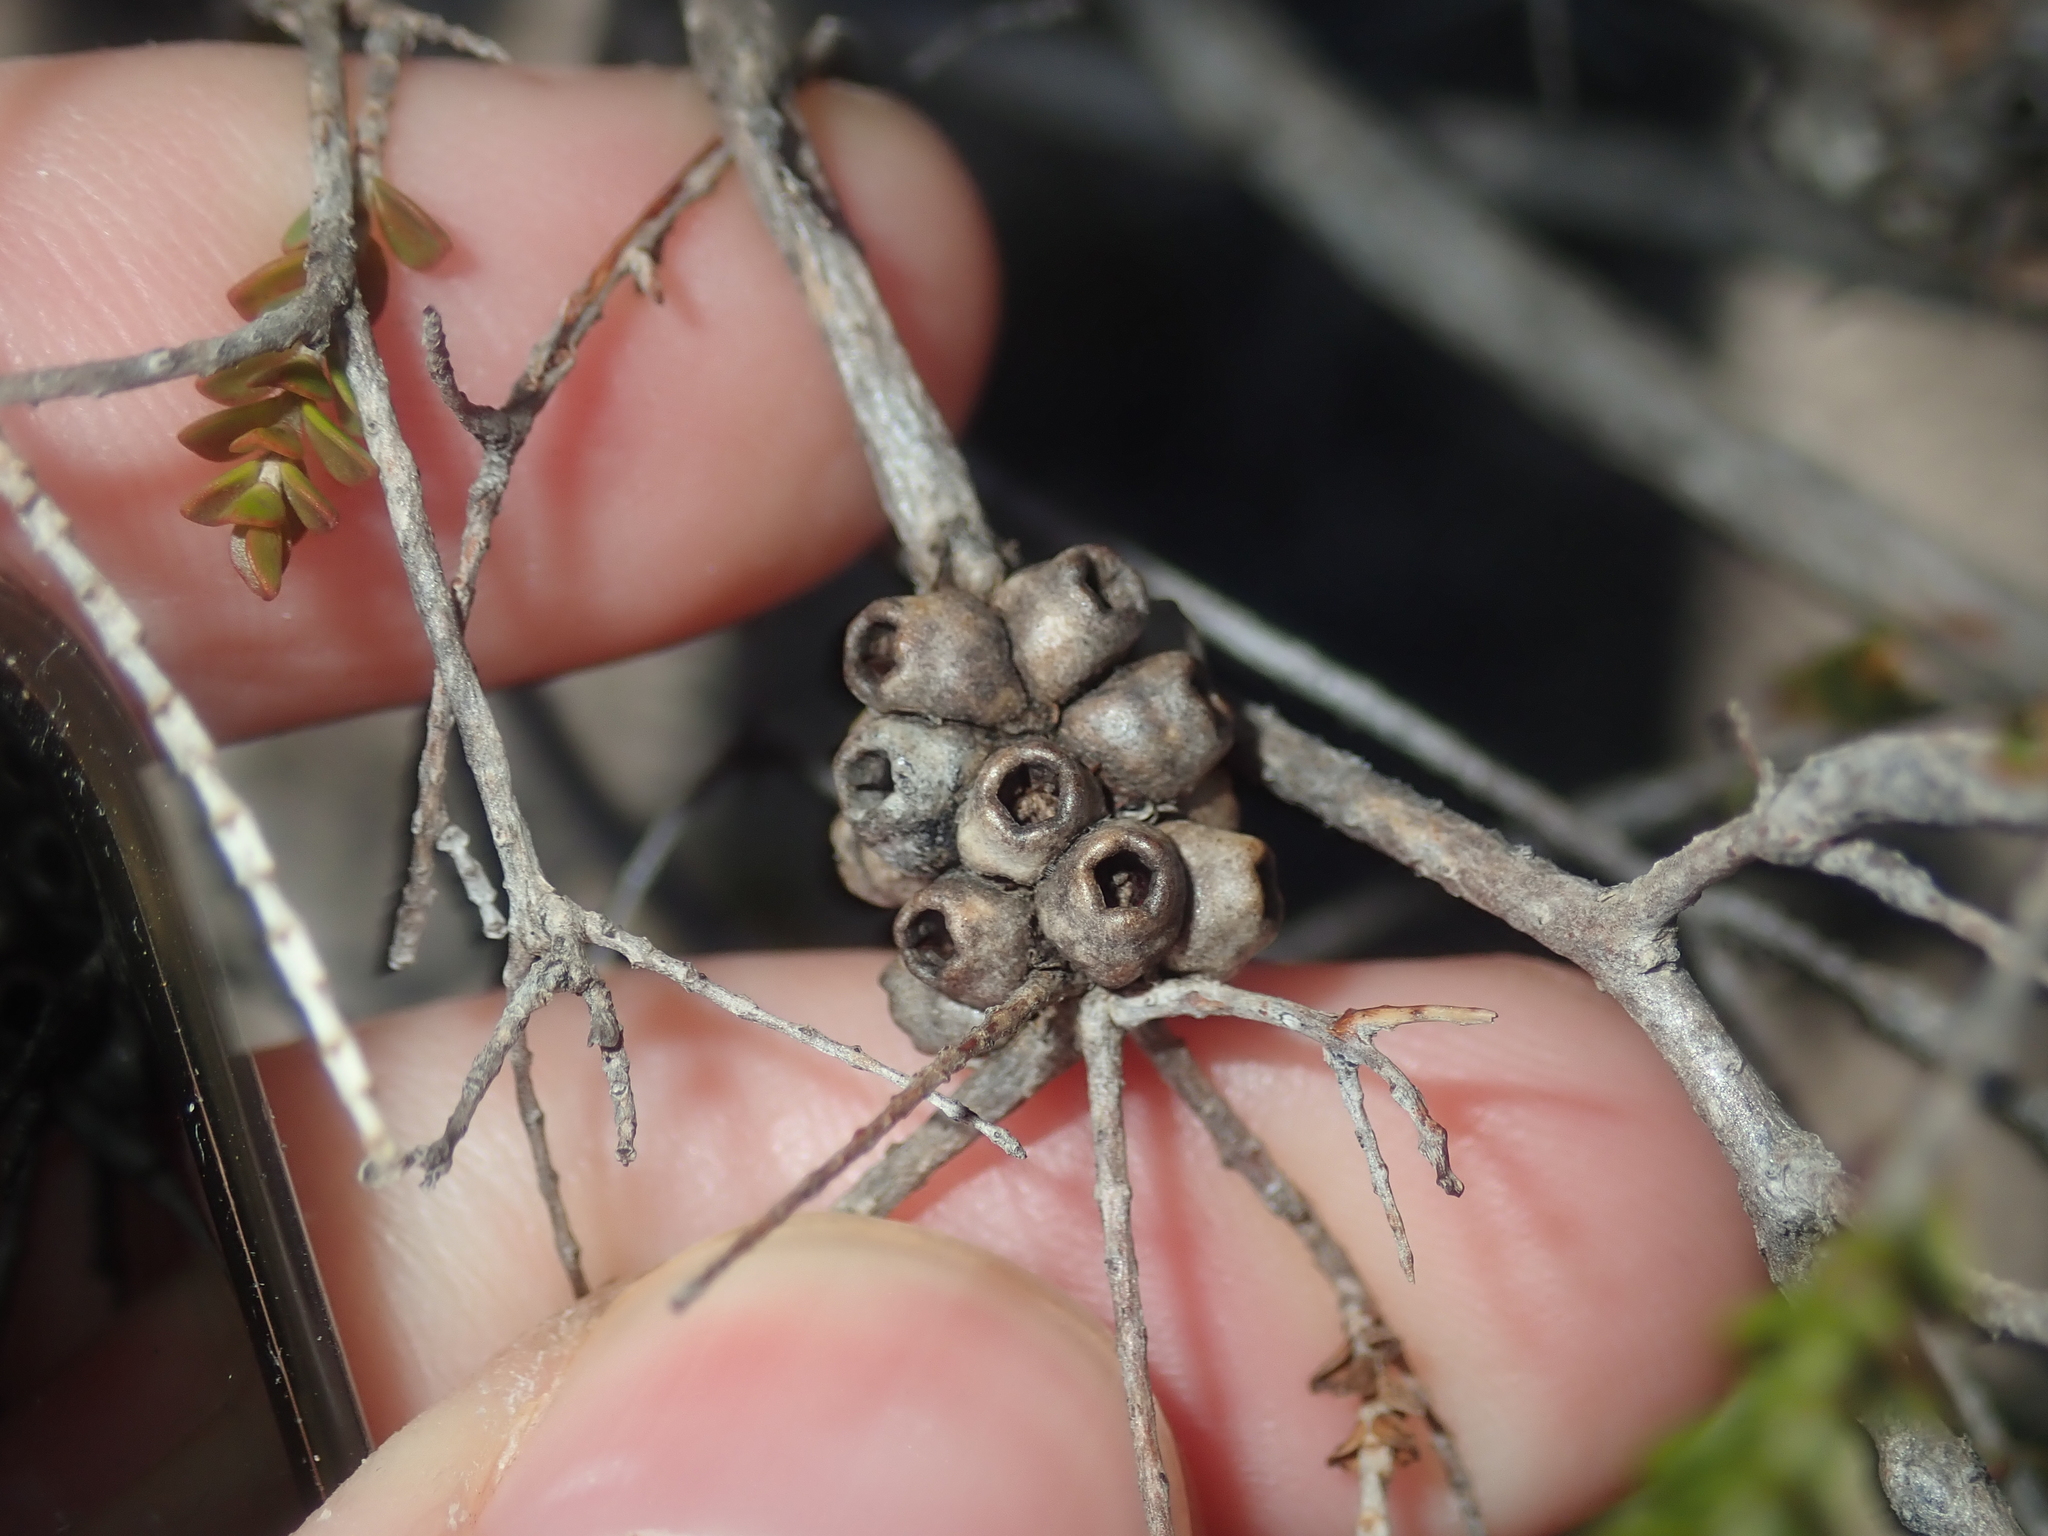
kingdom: Plantae
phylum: Tracheophyta
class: Magnoliopsida
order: Myrtales
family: Myrtaceae
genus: Melaleuca
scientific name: Melaleuca scitula
